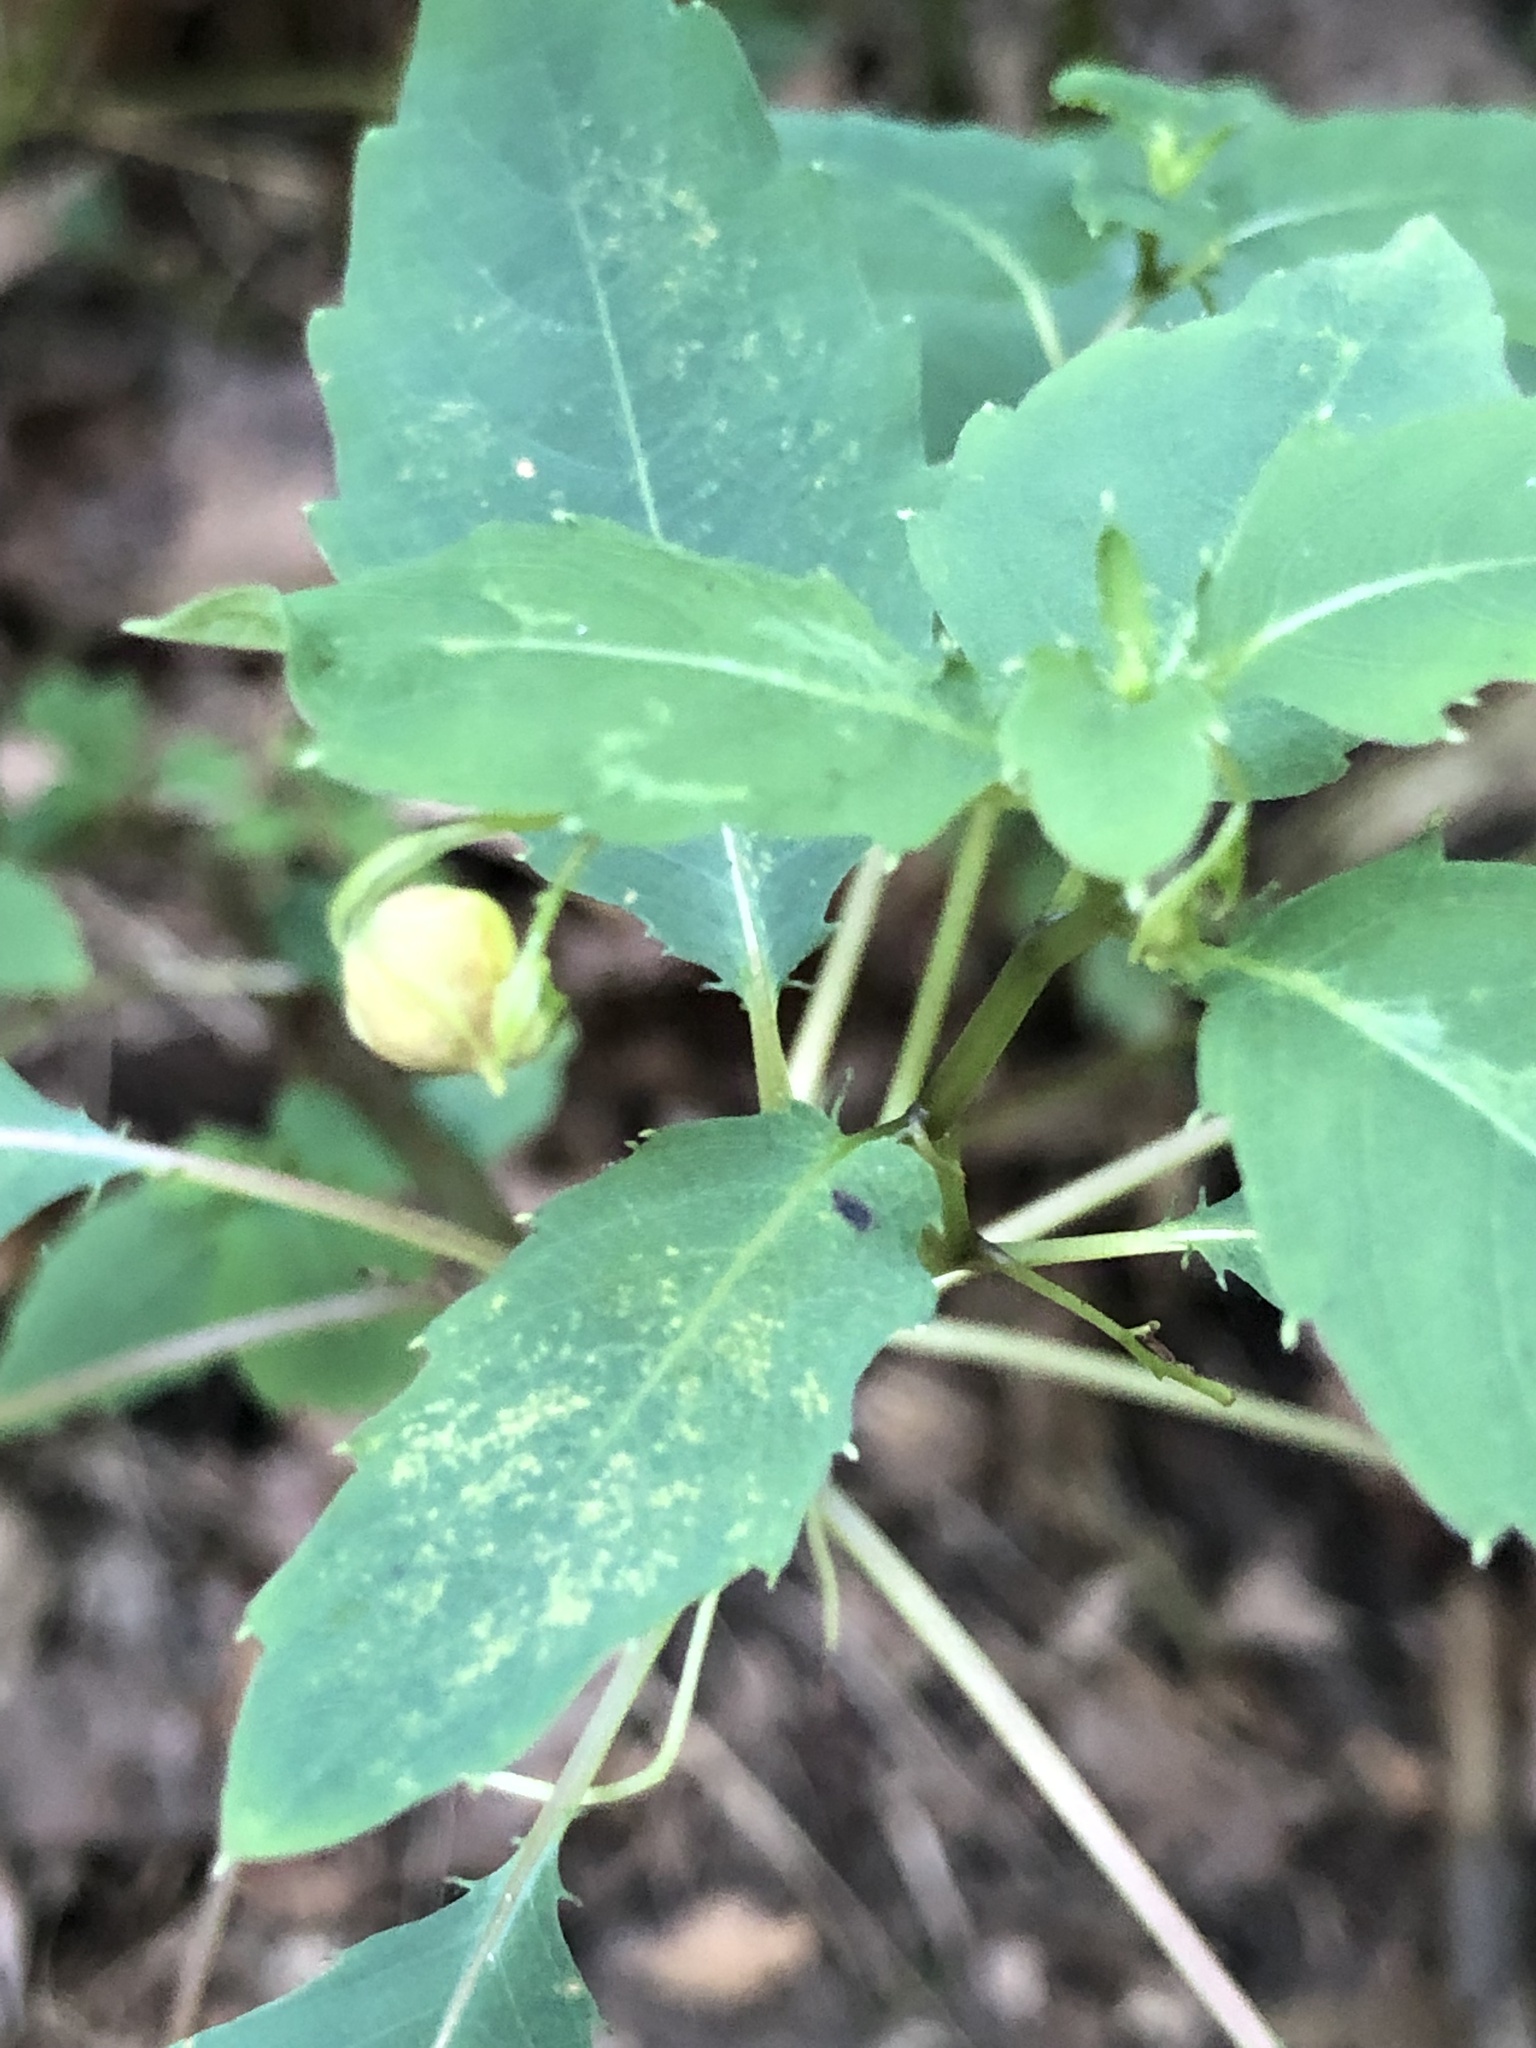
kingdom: Plantae
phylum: Tracheophyta
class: Magnoliopsida
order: Ericales
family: Balsaminaceae
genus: Impatiens
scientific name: Impatiens capensis
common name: Orange balsam
